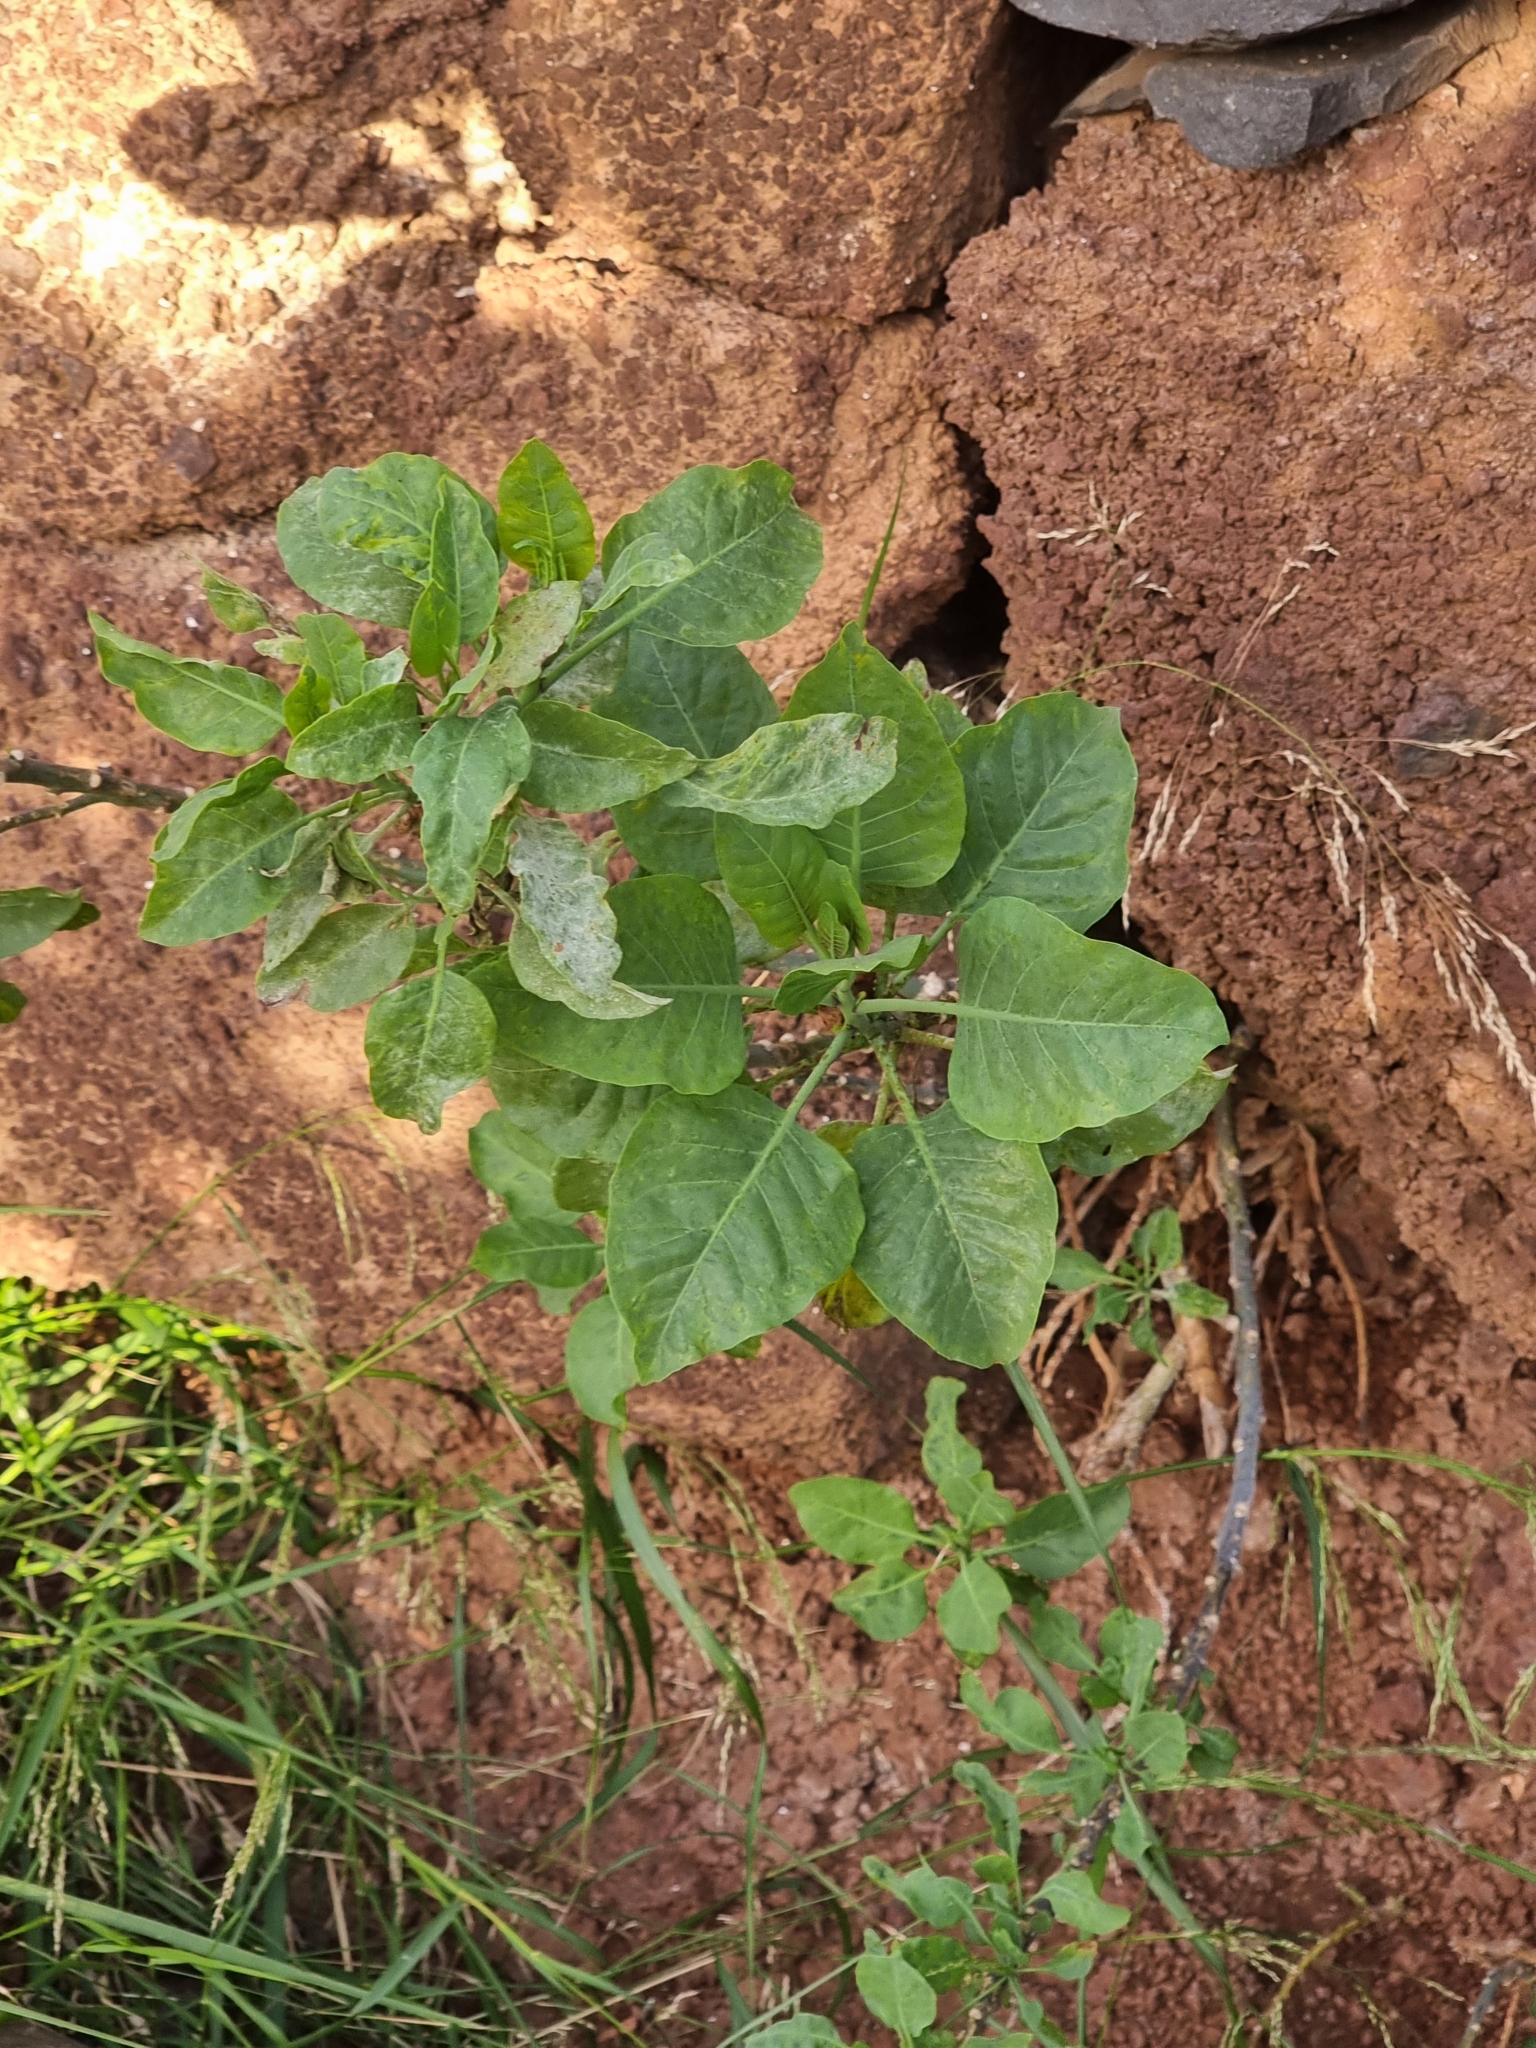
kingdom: Plantae
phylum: Tracheophyta
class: Magnoliopsida
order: Solanales
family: Solanaceae
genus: Nicotiana
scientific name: Nicotiana glauca
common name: Tree tobacco
